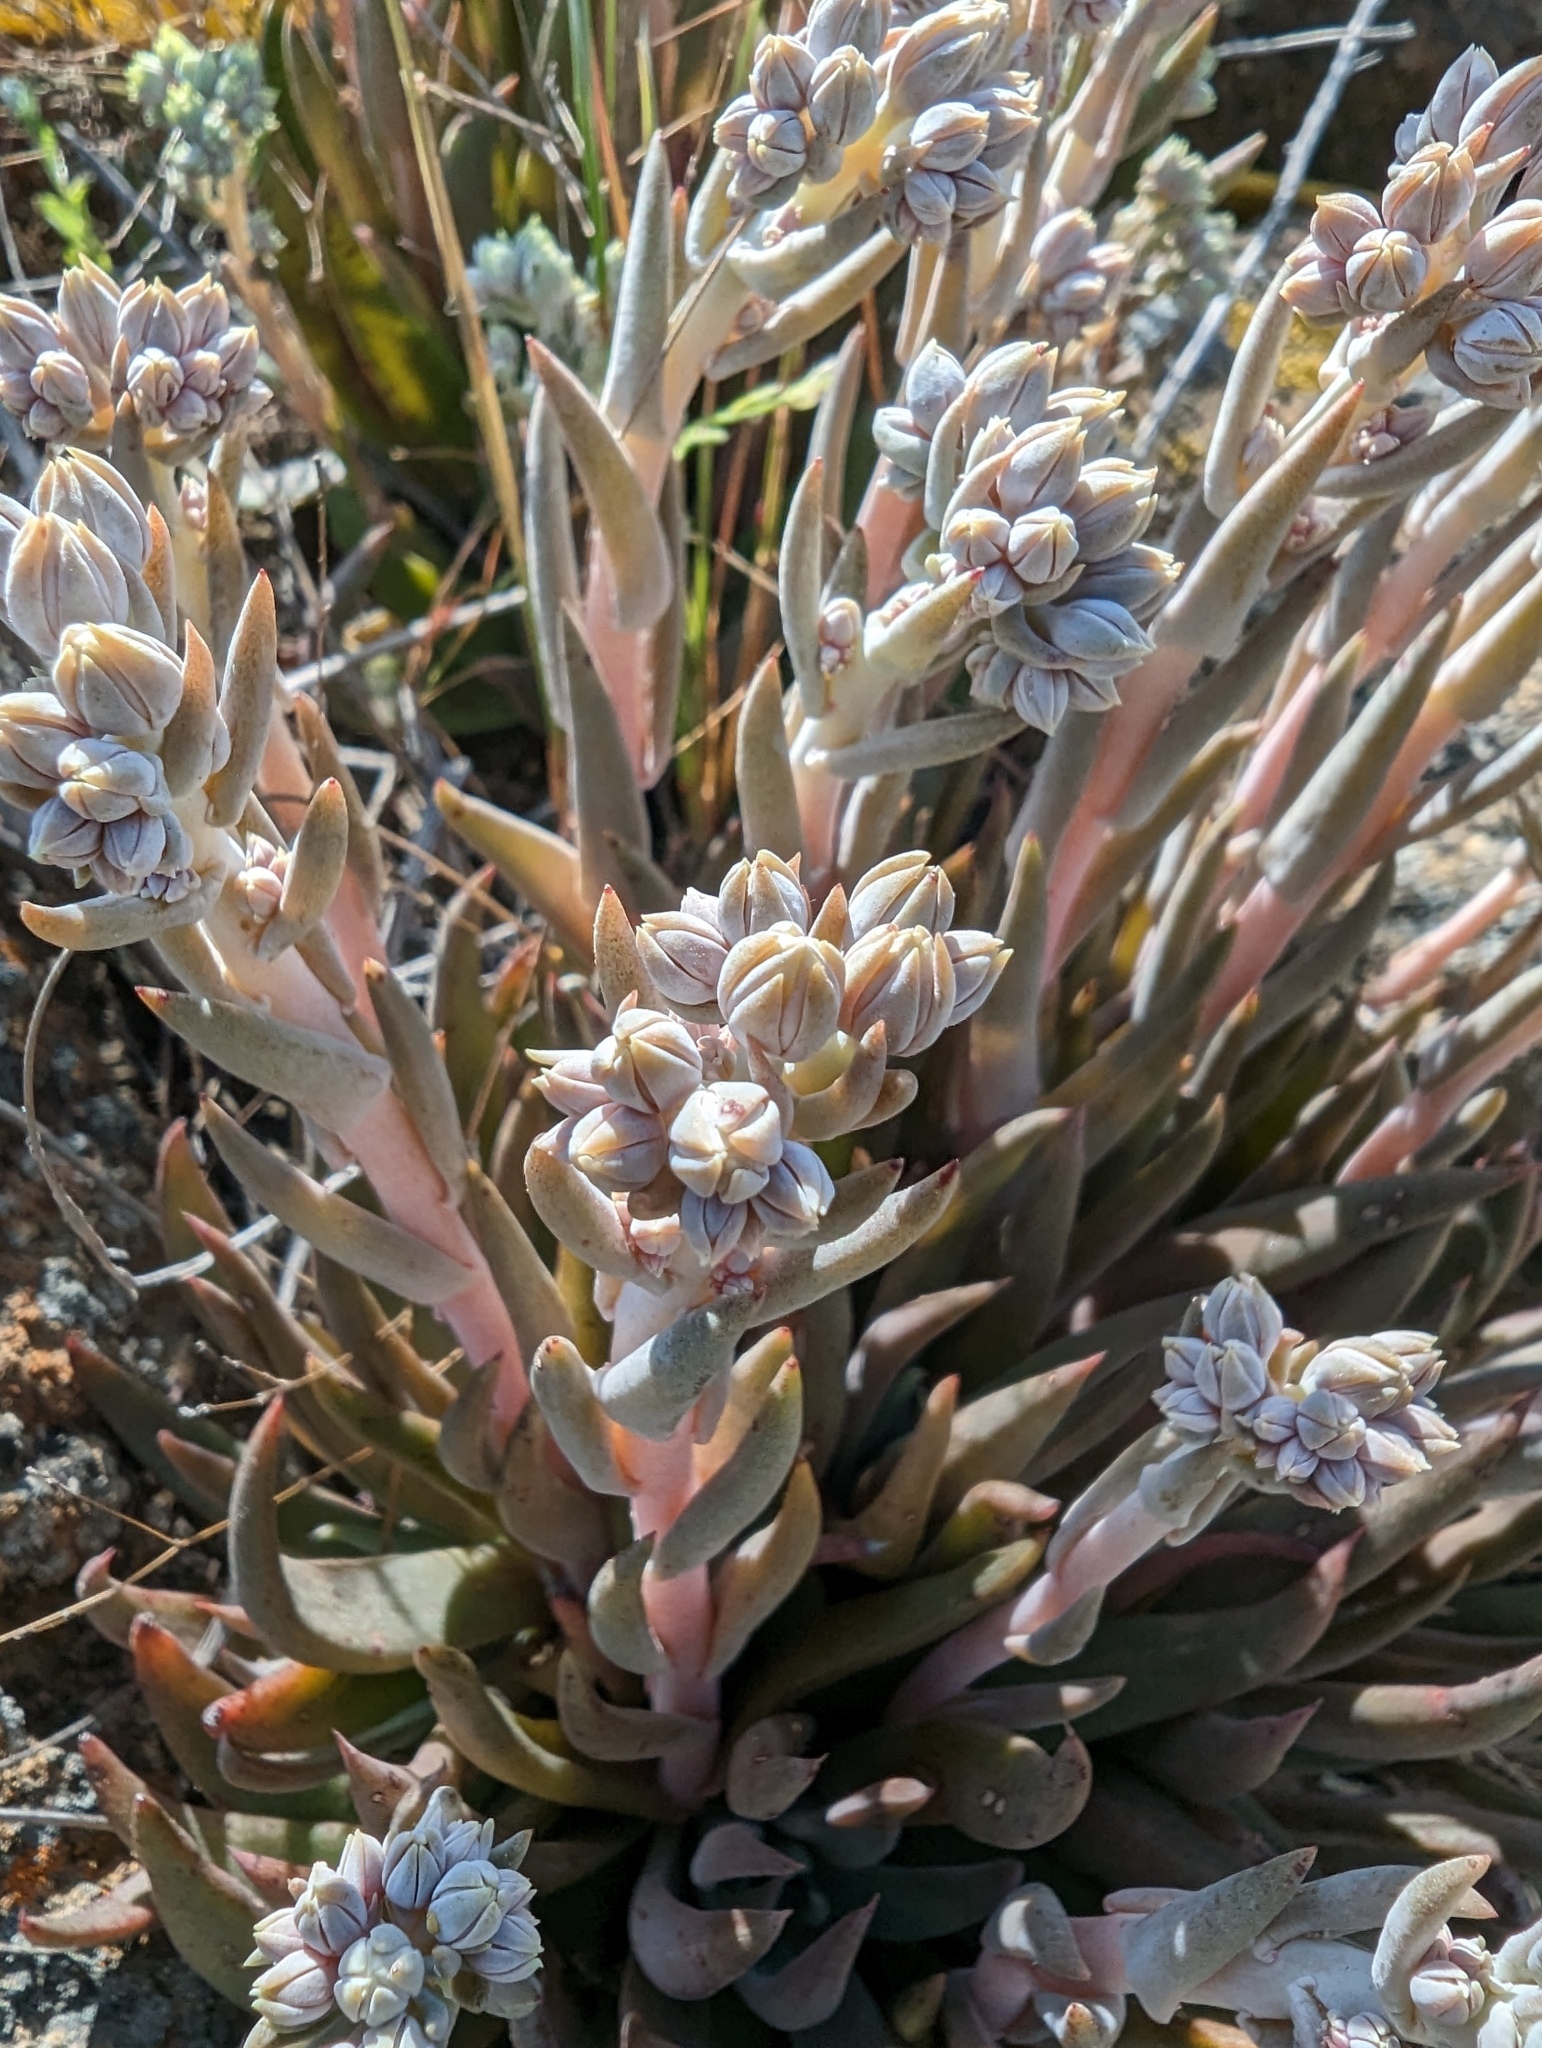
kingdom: Plantae
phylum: Tracheophyta
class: Magnoliopsida
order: Saxifragales
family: Crassulaceae
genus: Dudleya
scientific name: Dudleya abramsii
